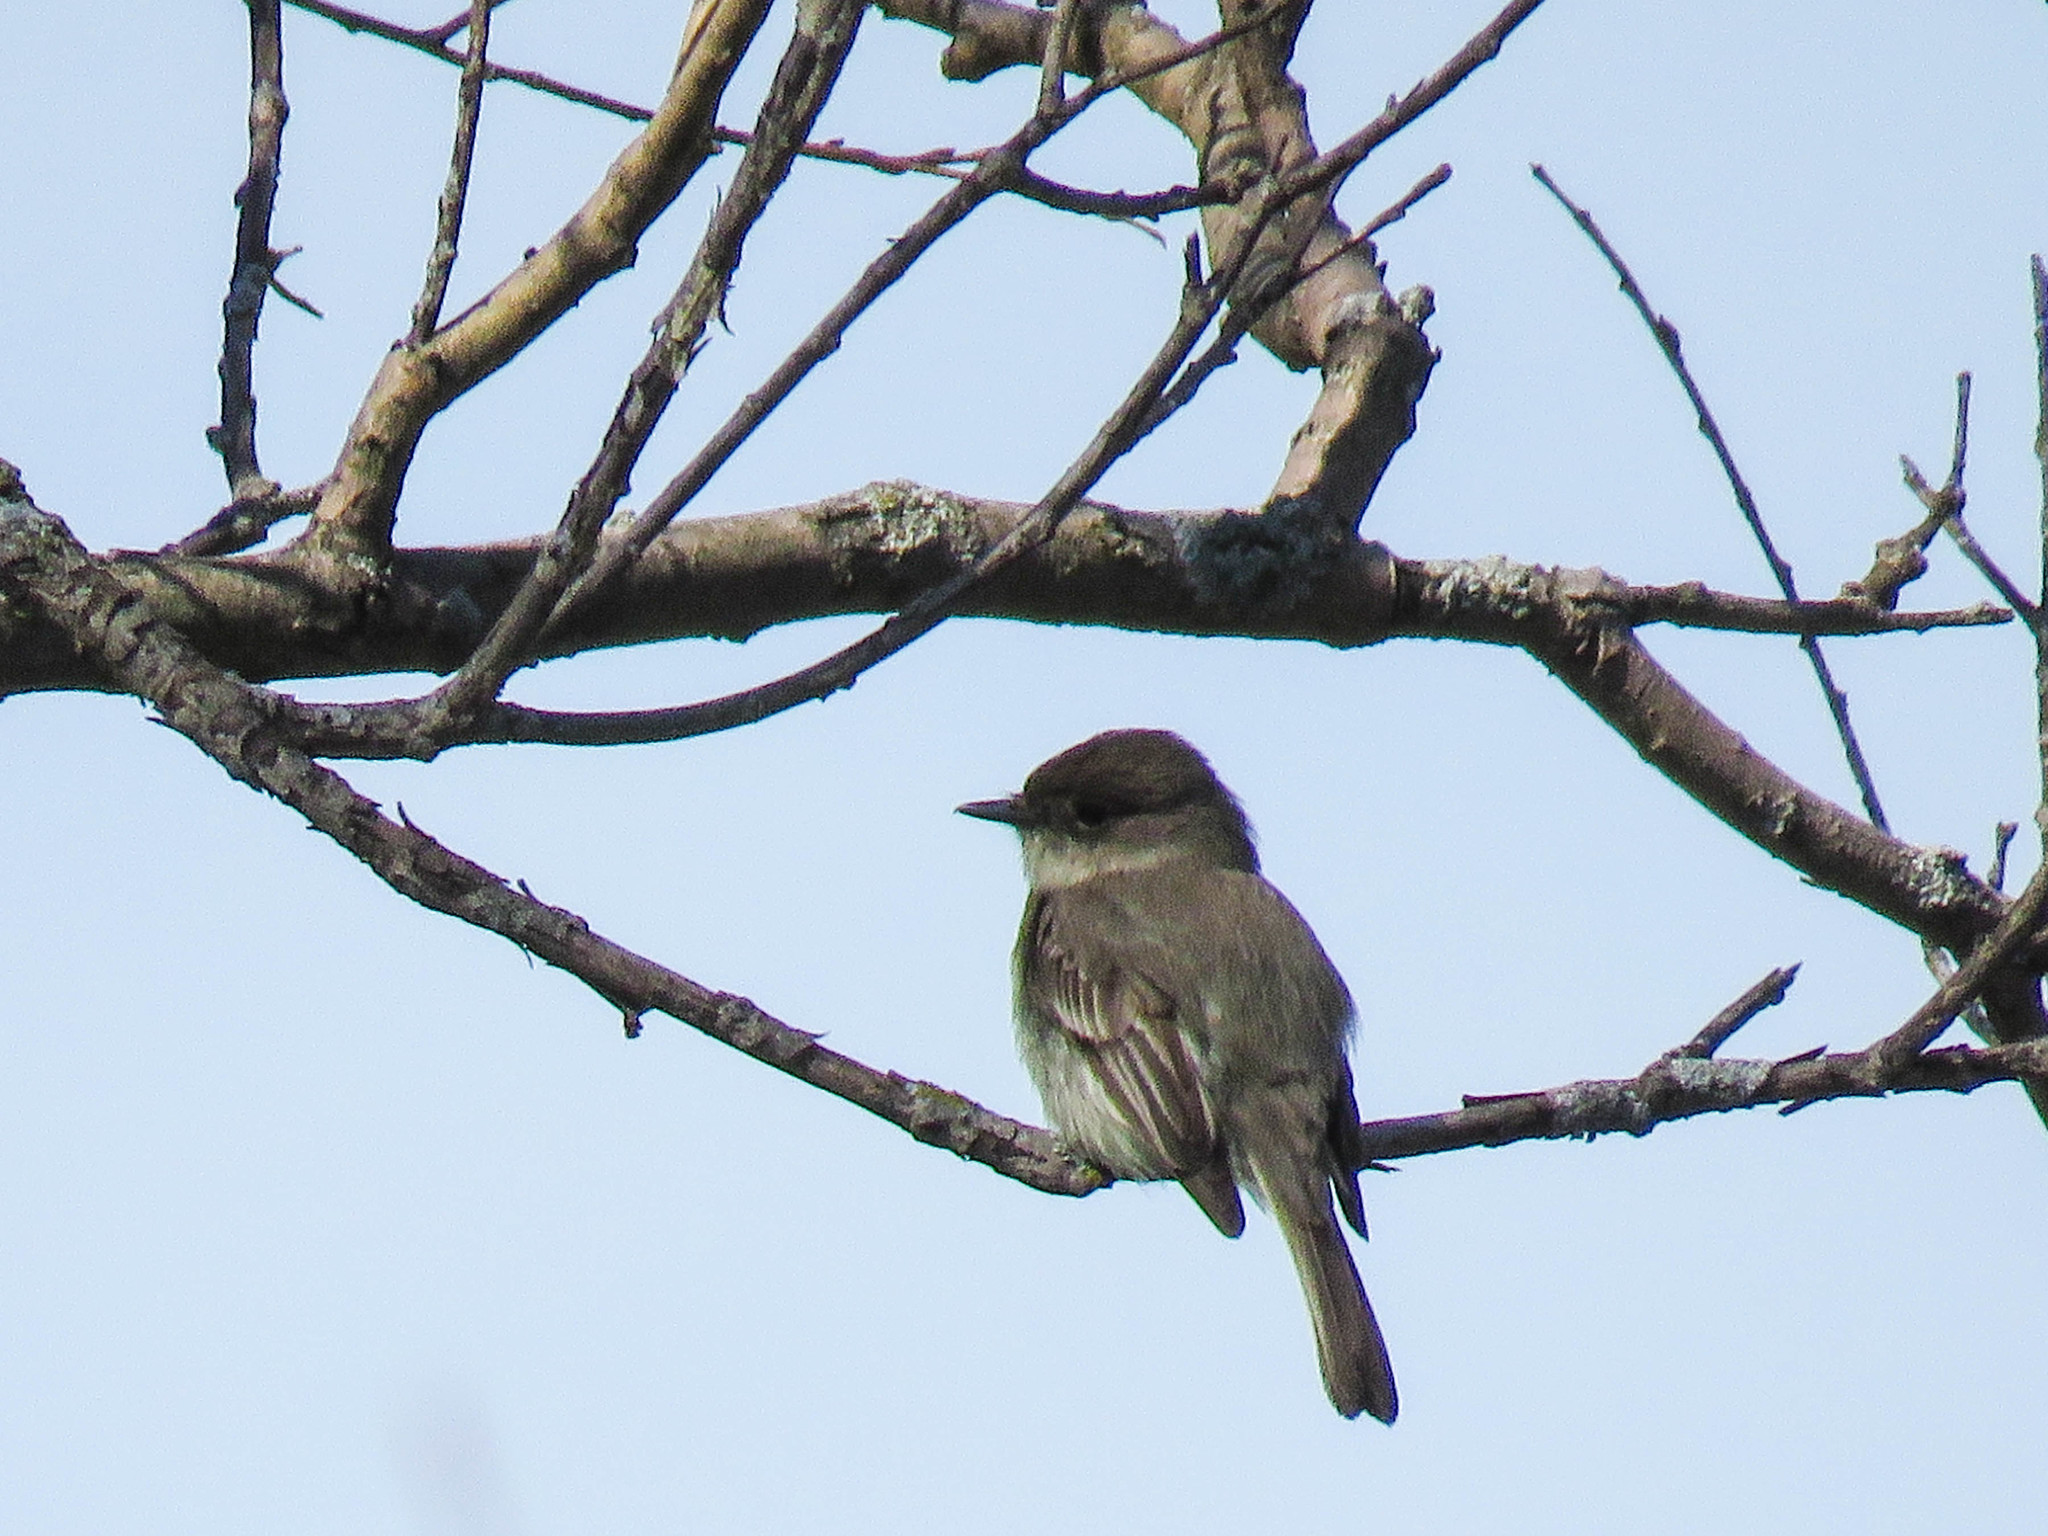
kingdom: Animalia
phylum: Chordata
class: Aves
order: Passeriformes
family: Tyrannidae
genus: Sayornis
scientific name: Sayornis phoebe
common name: Eastern phoebe
